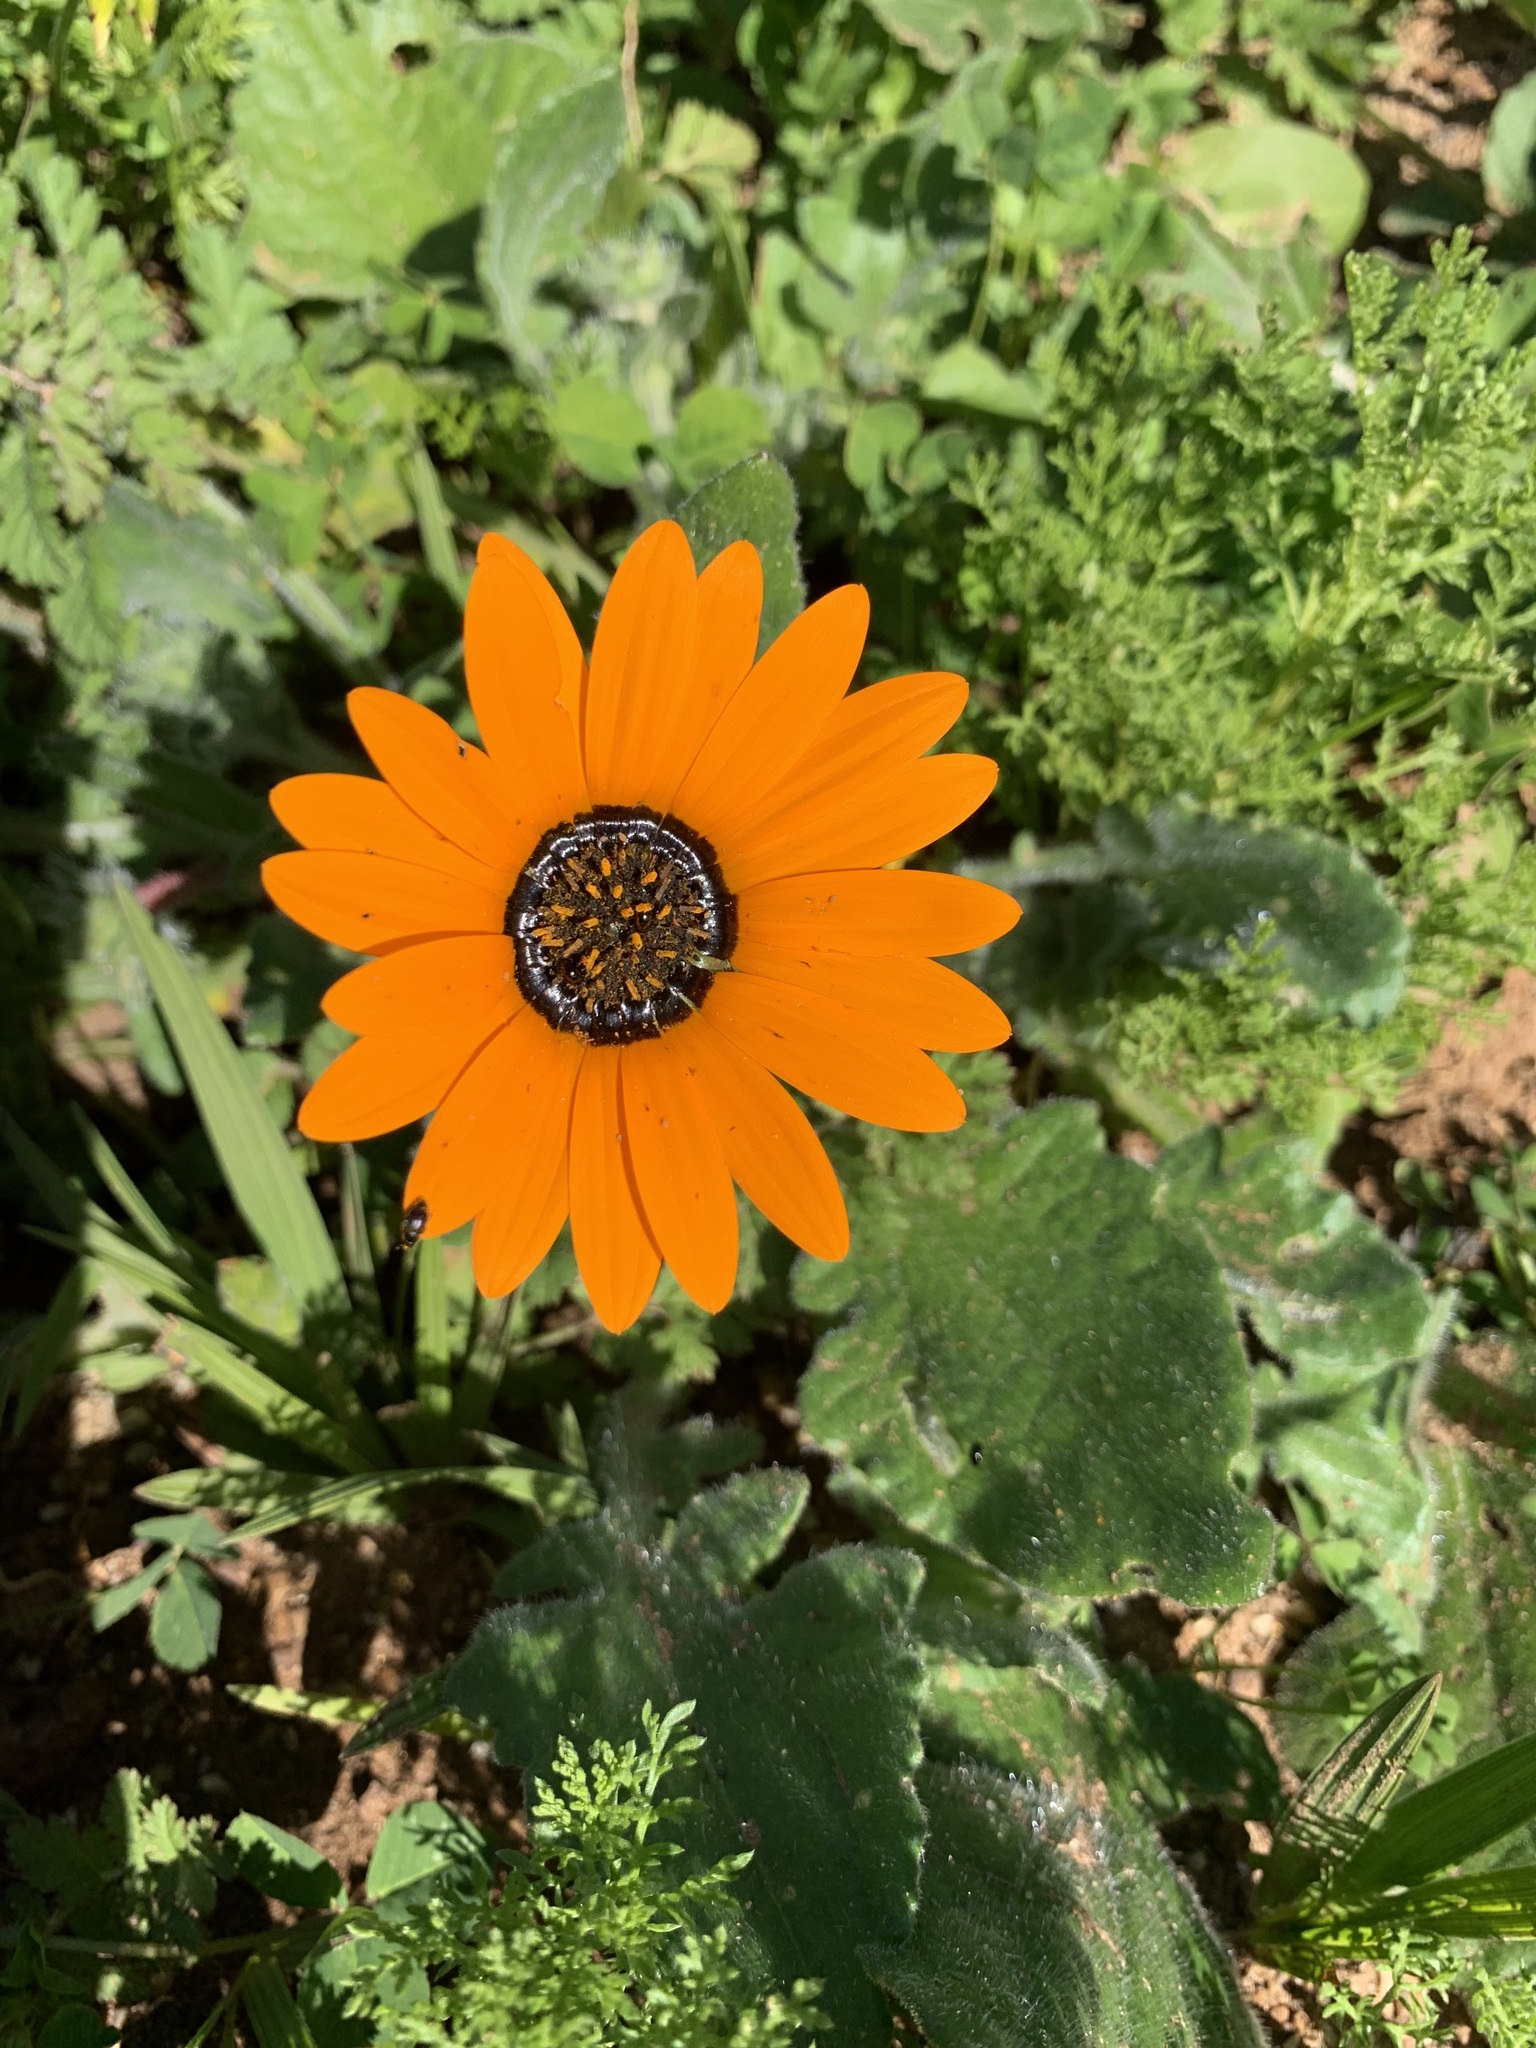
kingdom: Plantae
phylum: Tracheophyta
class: Magnoliopsida
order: Asterales
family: Asteraceae
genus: Arctotis
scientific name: Arctotis hirsuta
